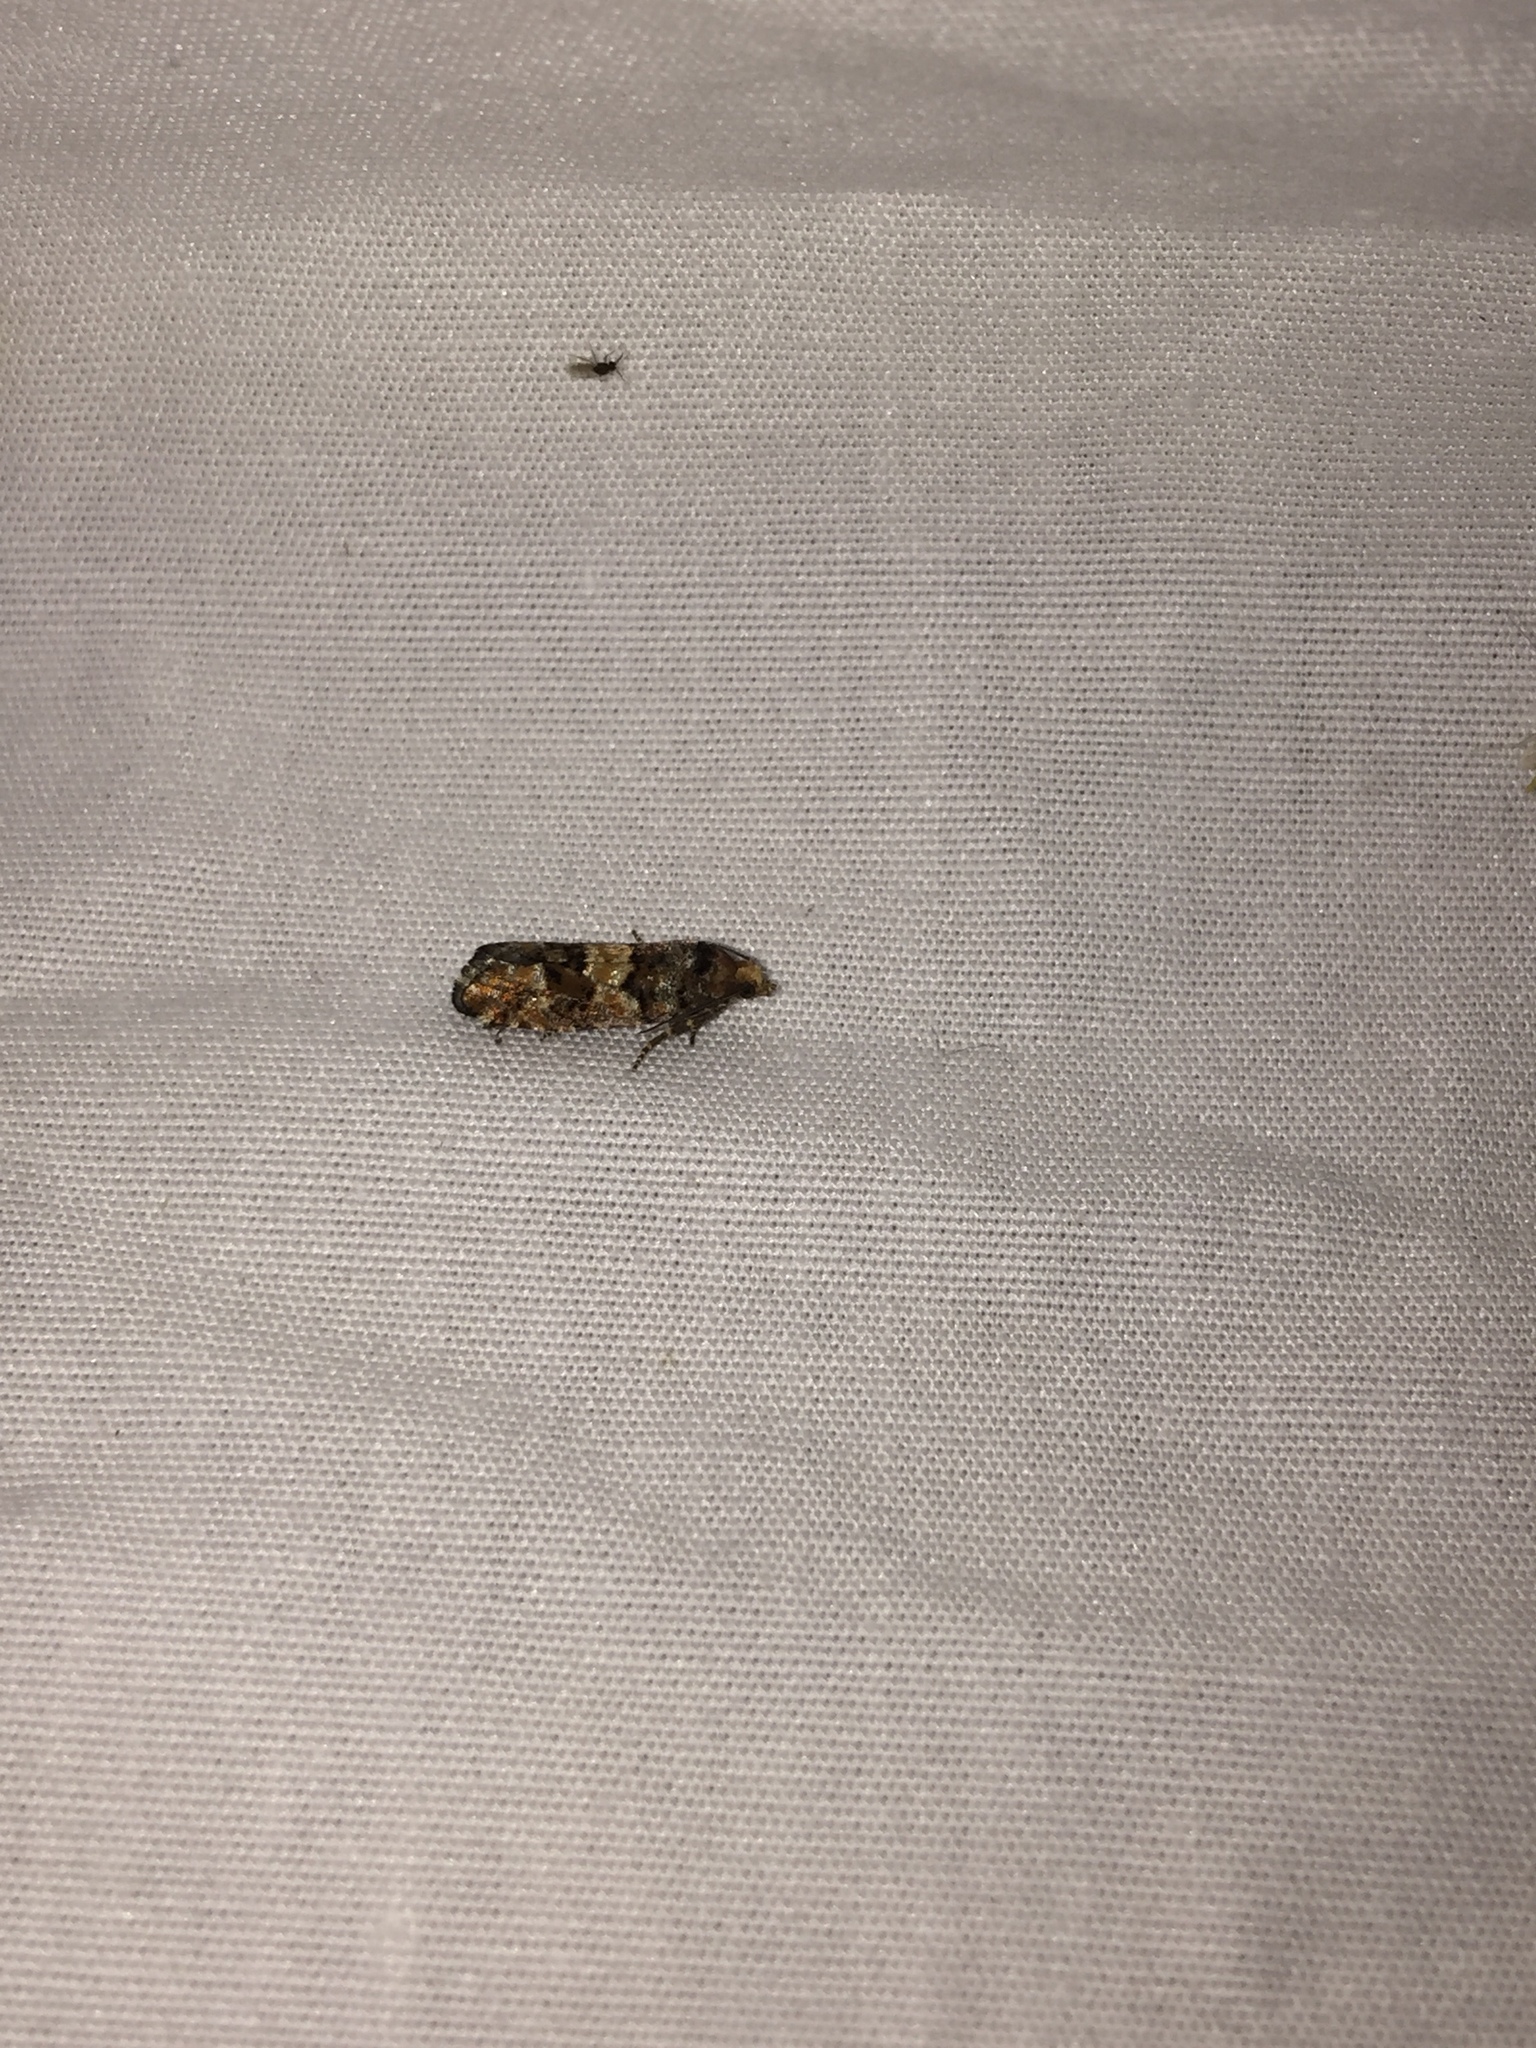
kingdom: Animalia
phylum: Arthropoda
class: Insecta
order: Lepidoptera
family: Tortricidae
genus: Eucopina
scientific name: Eucopina tocullionana
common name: White pinecone borer moth
